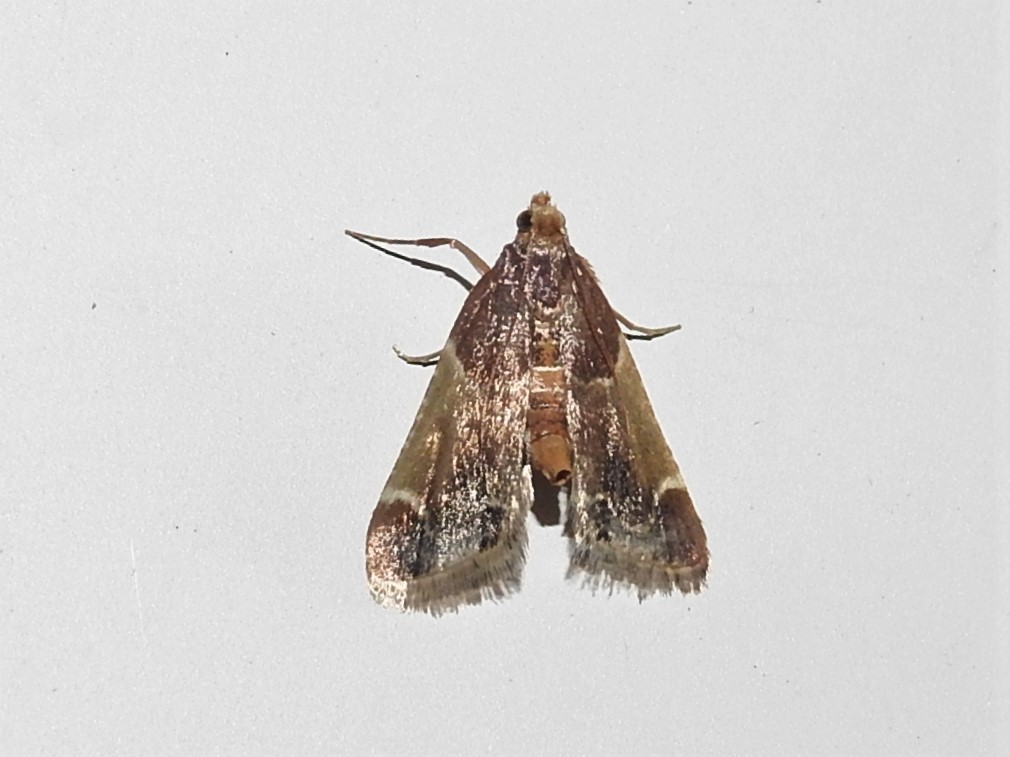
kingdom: Animalia
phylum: Arthropoda
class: Insecta
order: Lepidoptera
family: Pyralidae
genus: Pyralis
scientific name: Pyralis farinalis
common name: Meal moth
